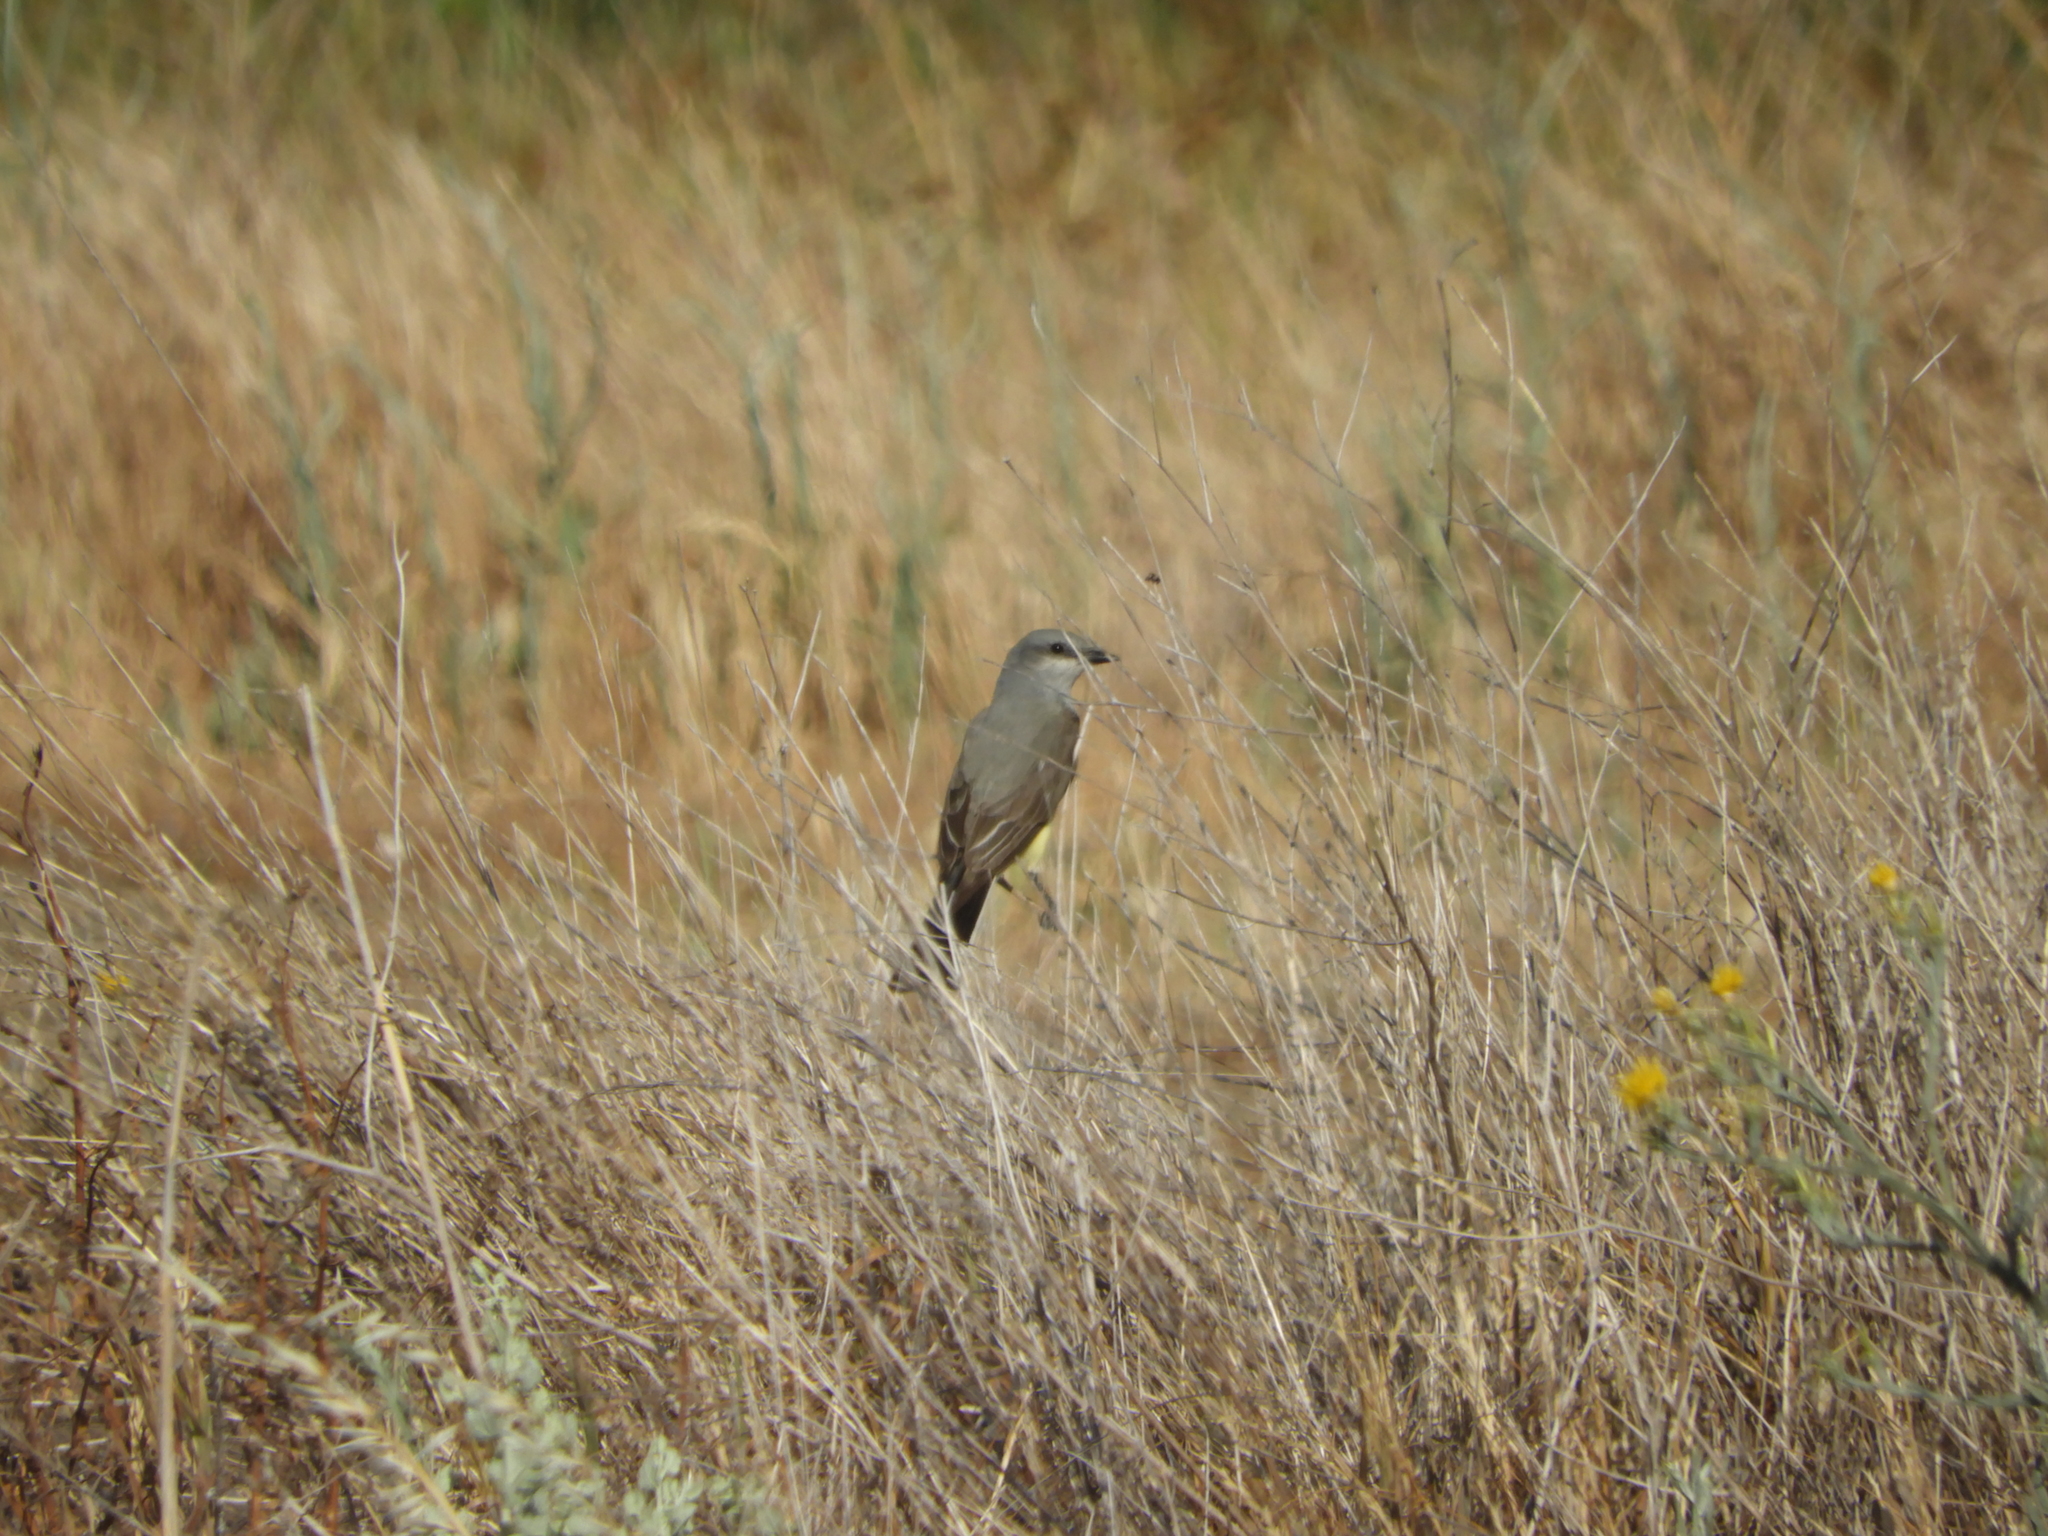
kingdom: Animalia
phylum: Chordata
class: Aves
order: Passeriformes
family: Tyrannidae
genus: Tyrannus
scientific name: Tyrannus verticalis
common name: Western kingbird
